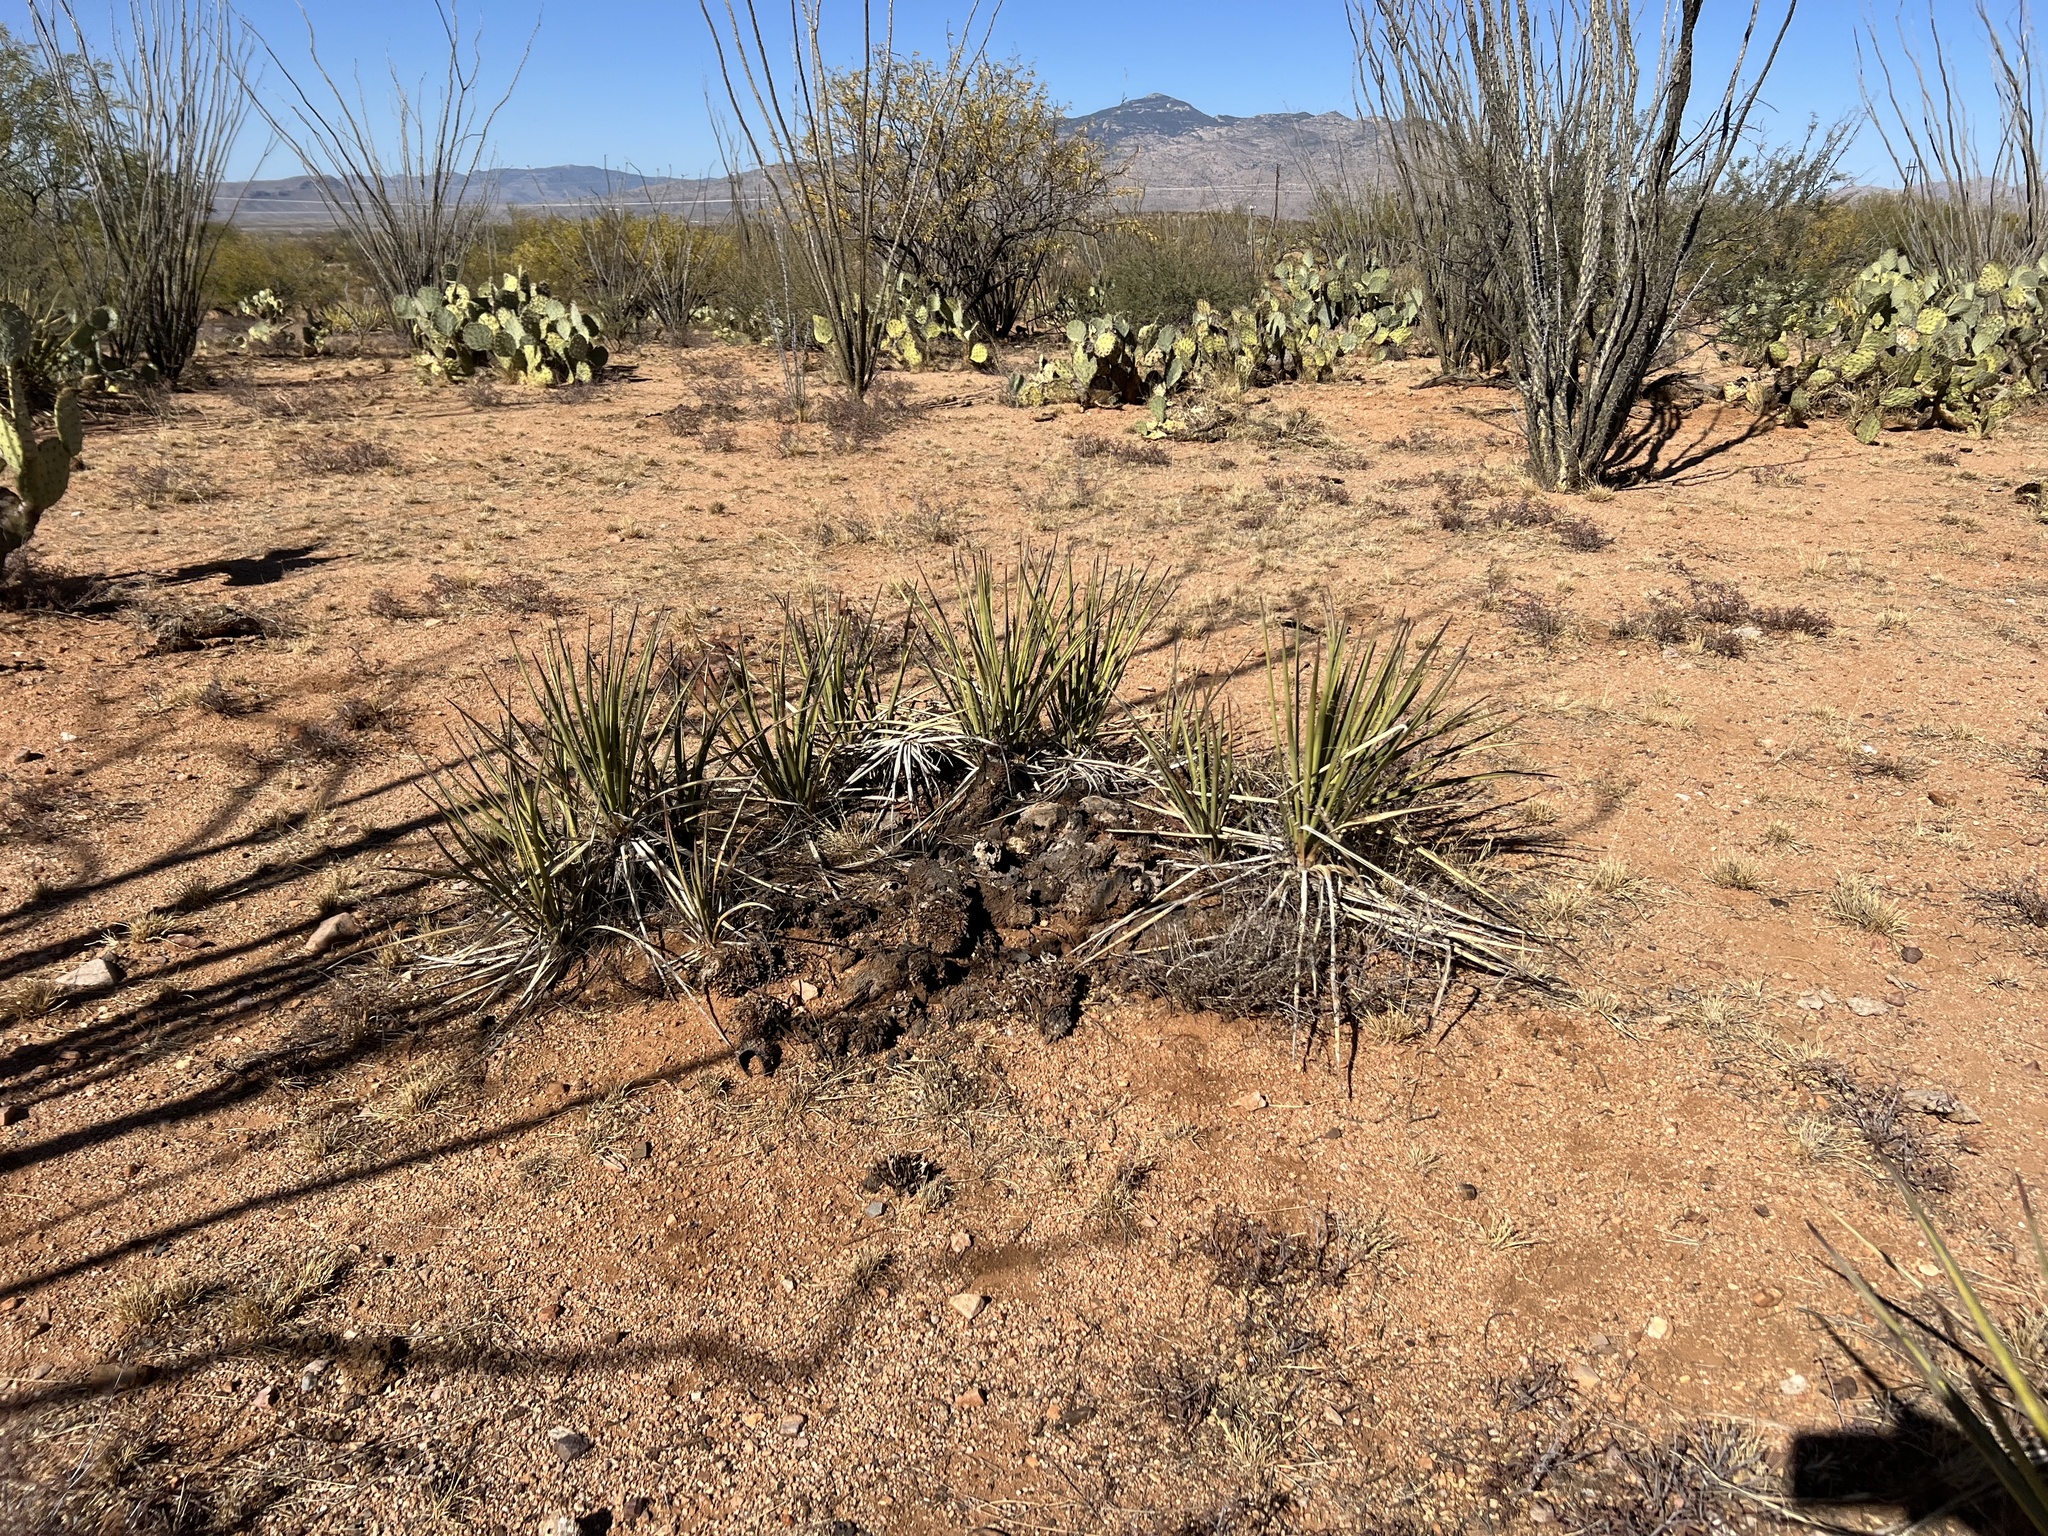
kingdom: Plantae
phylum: Tracheophyta
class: Liliopsida
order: Asparagales
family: Asparagaceae
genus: Yucca
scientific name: Yucca baccata
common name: Banana yucca
